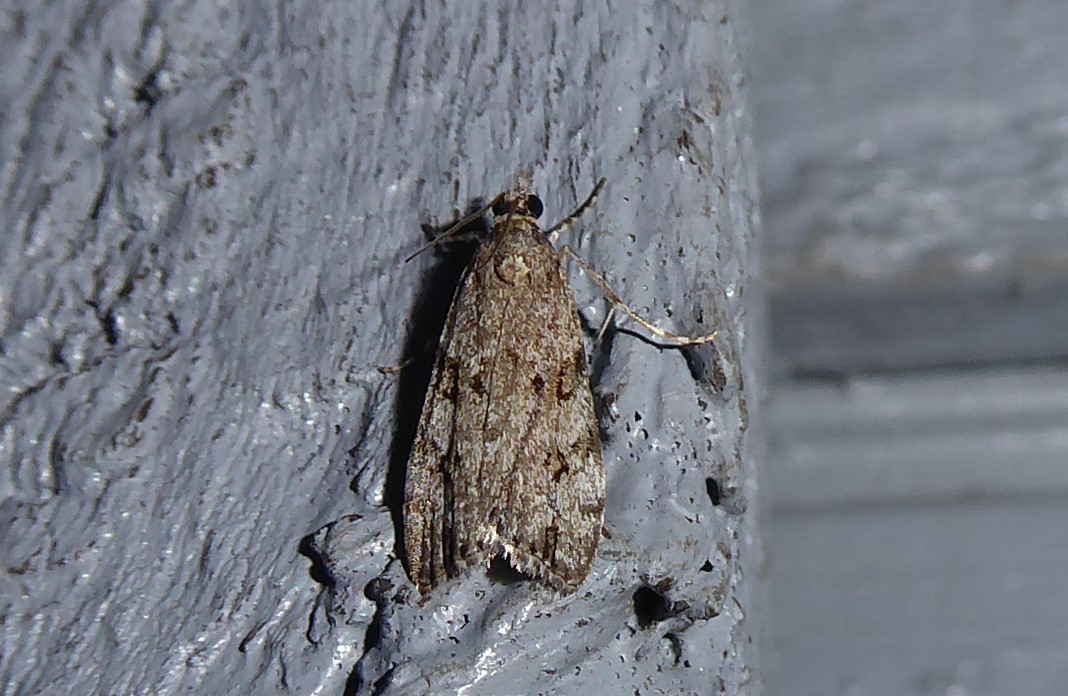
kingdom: Animalia
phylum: Arthropoda
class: Insecta
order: Lepidoptera
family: Crambidae
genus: Eudonia
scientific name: Eudonia cymatias
